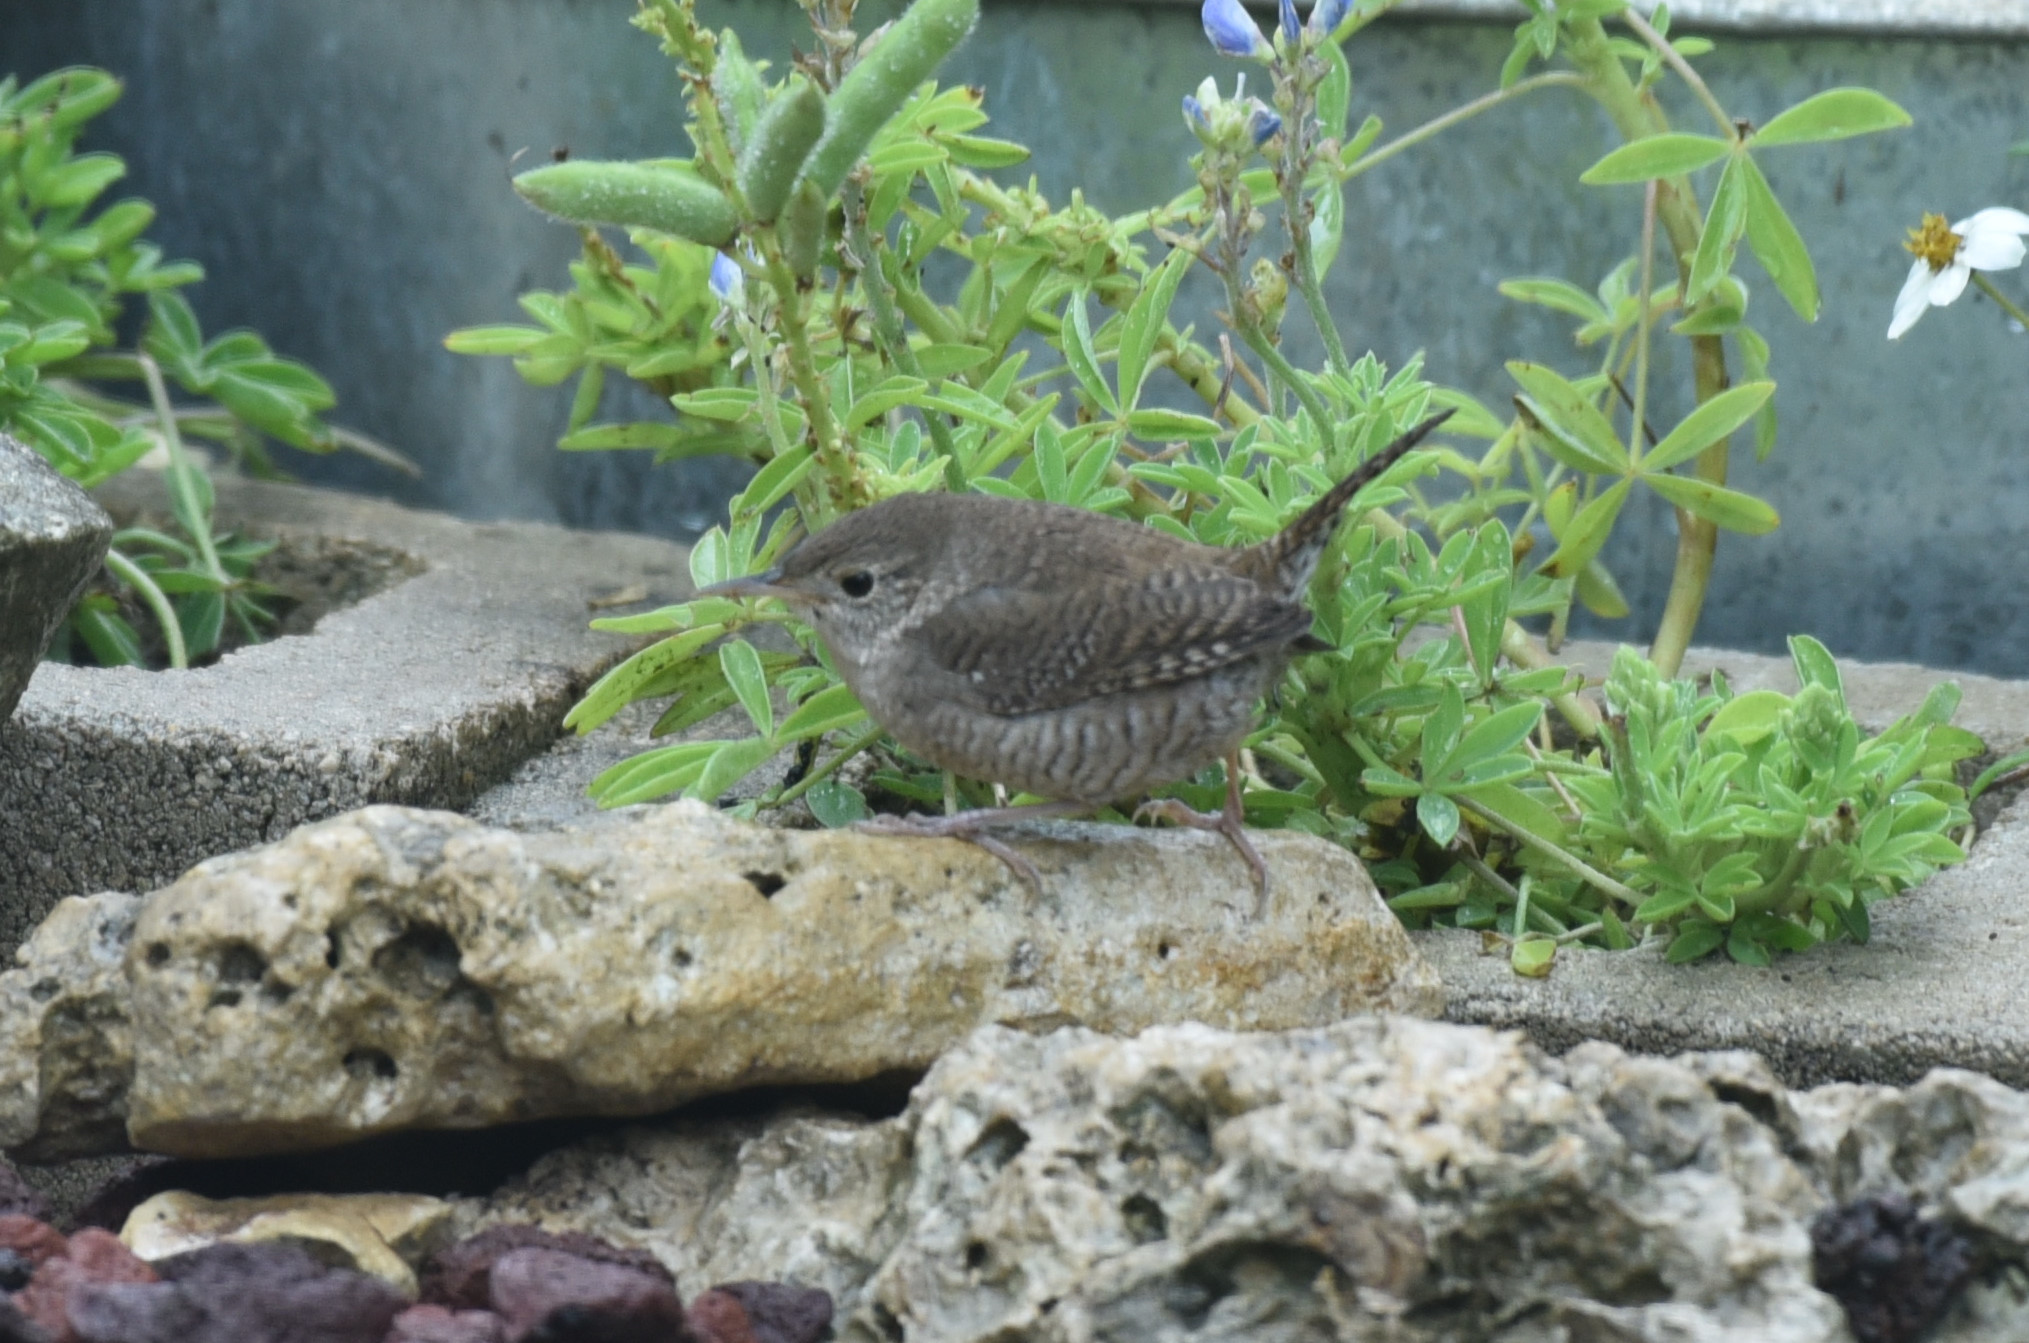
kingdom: Animalia
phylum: Chordata
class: Aves
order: Passeriformes
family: Troglodytidae
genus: Troglodytes
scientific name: Troglodytes aedon
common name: House wren
